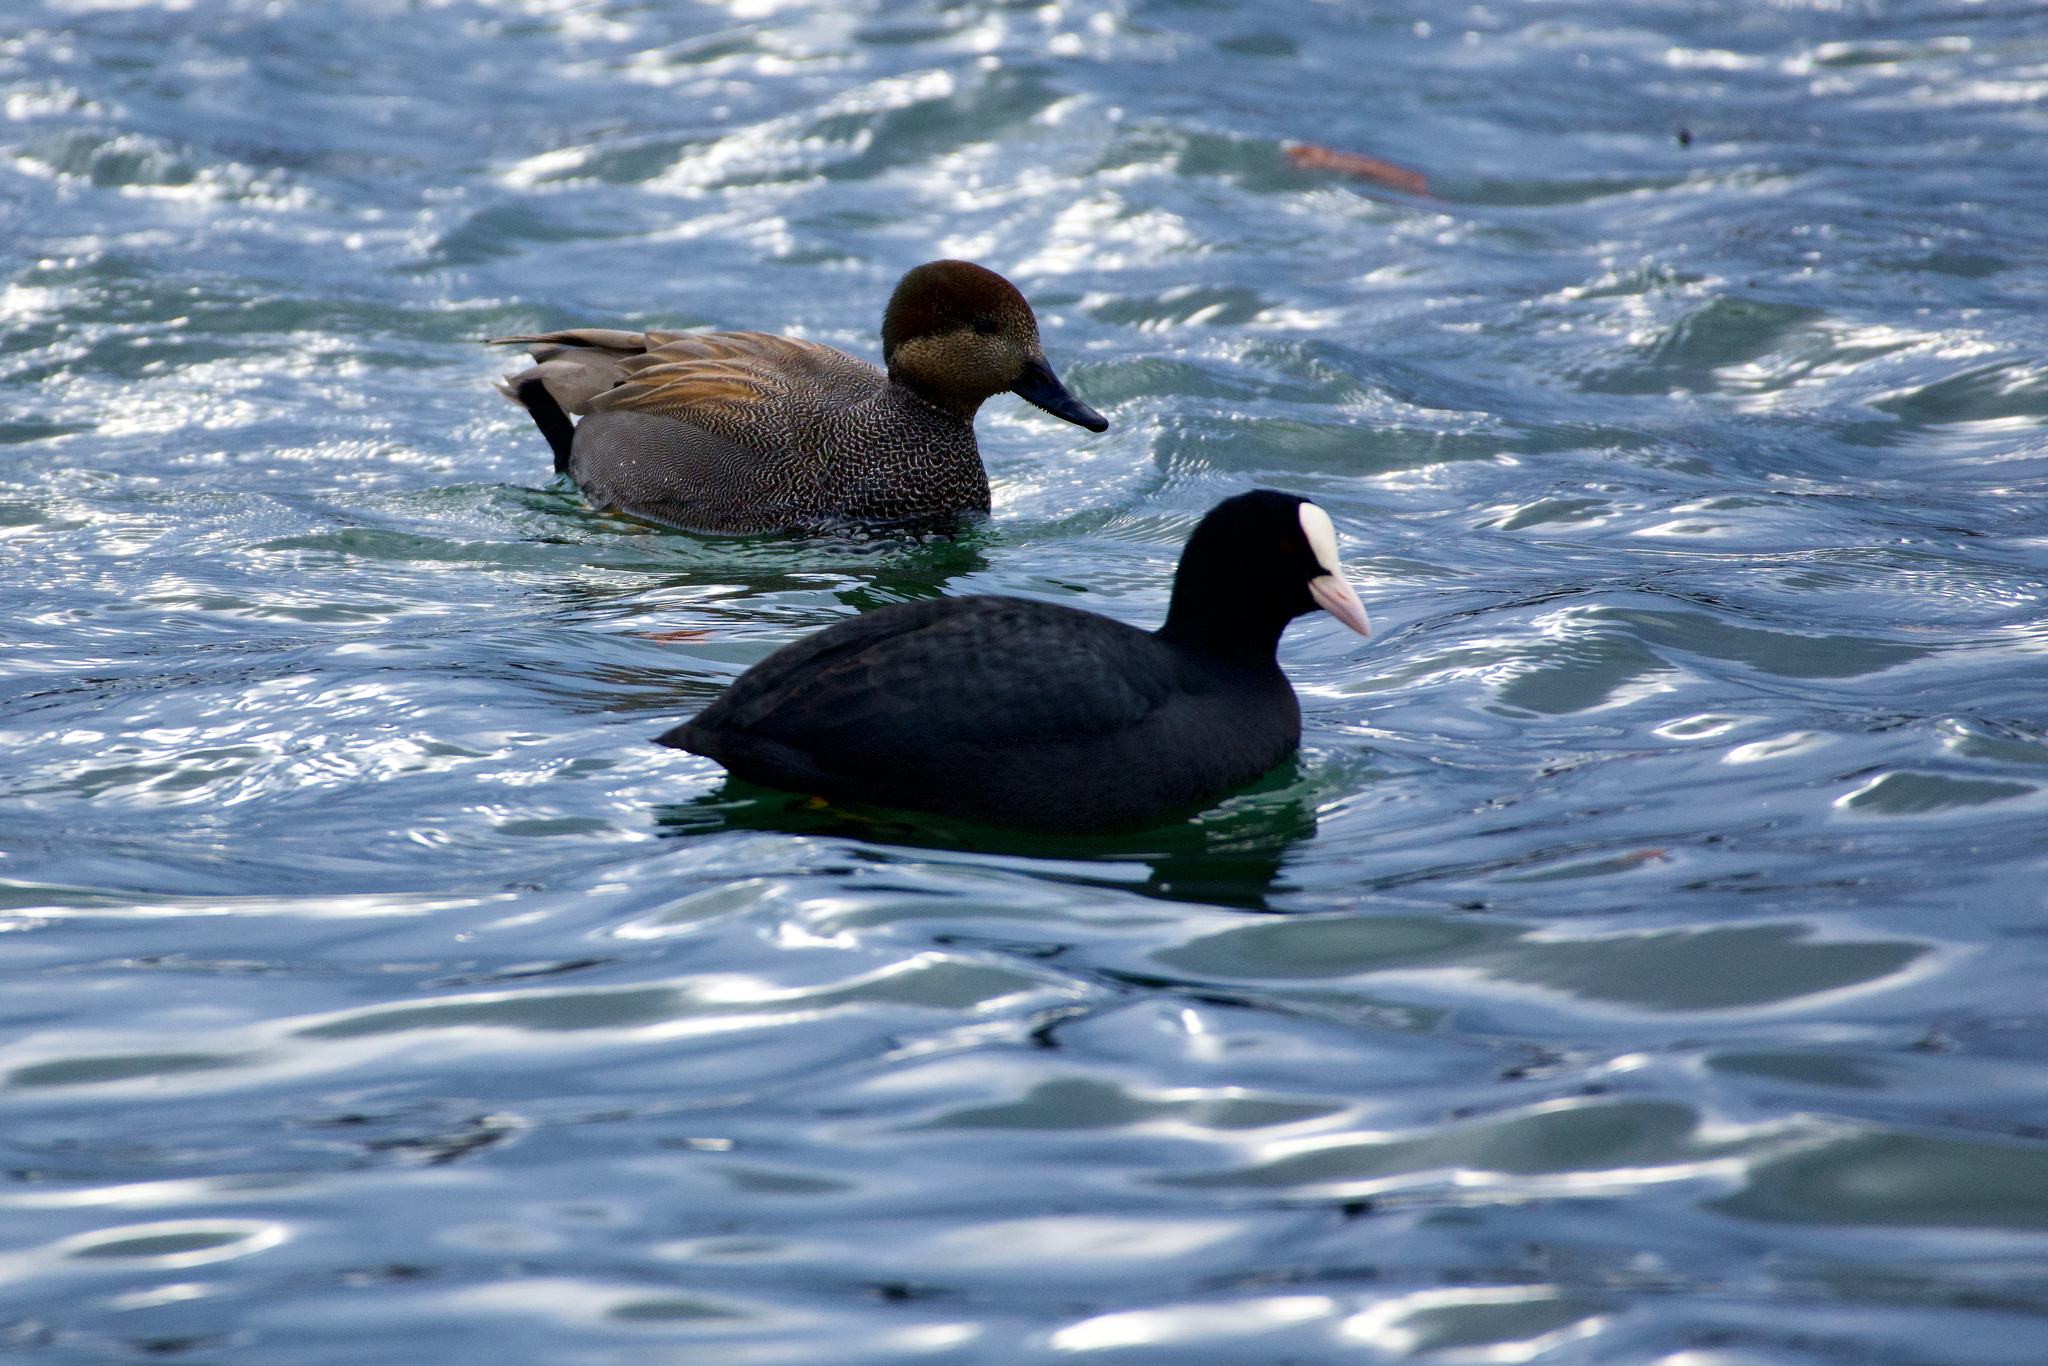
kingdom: Animalia
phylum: Chordata
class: Aves
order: Gruiformes
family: Rallidae
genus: Fulica
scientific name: Fulica atra
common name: Eurasian coot
